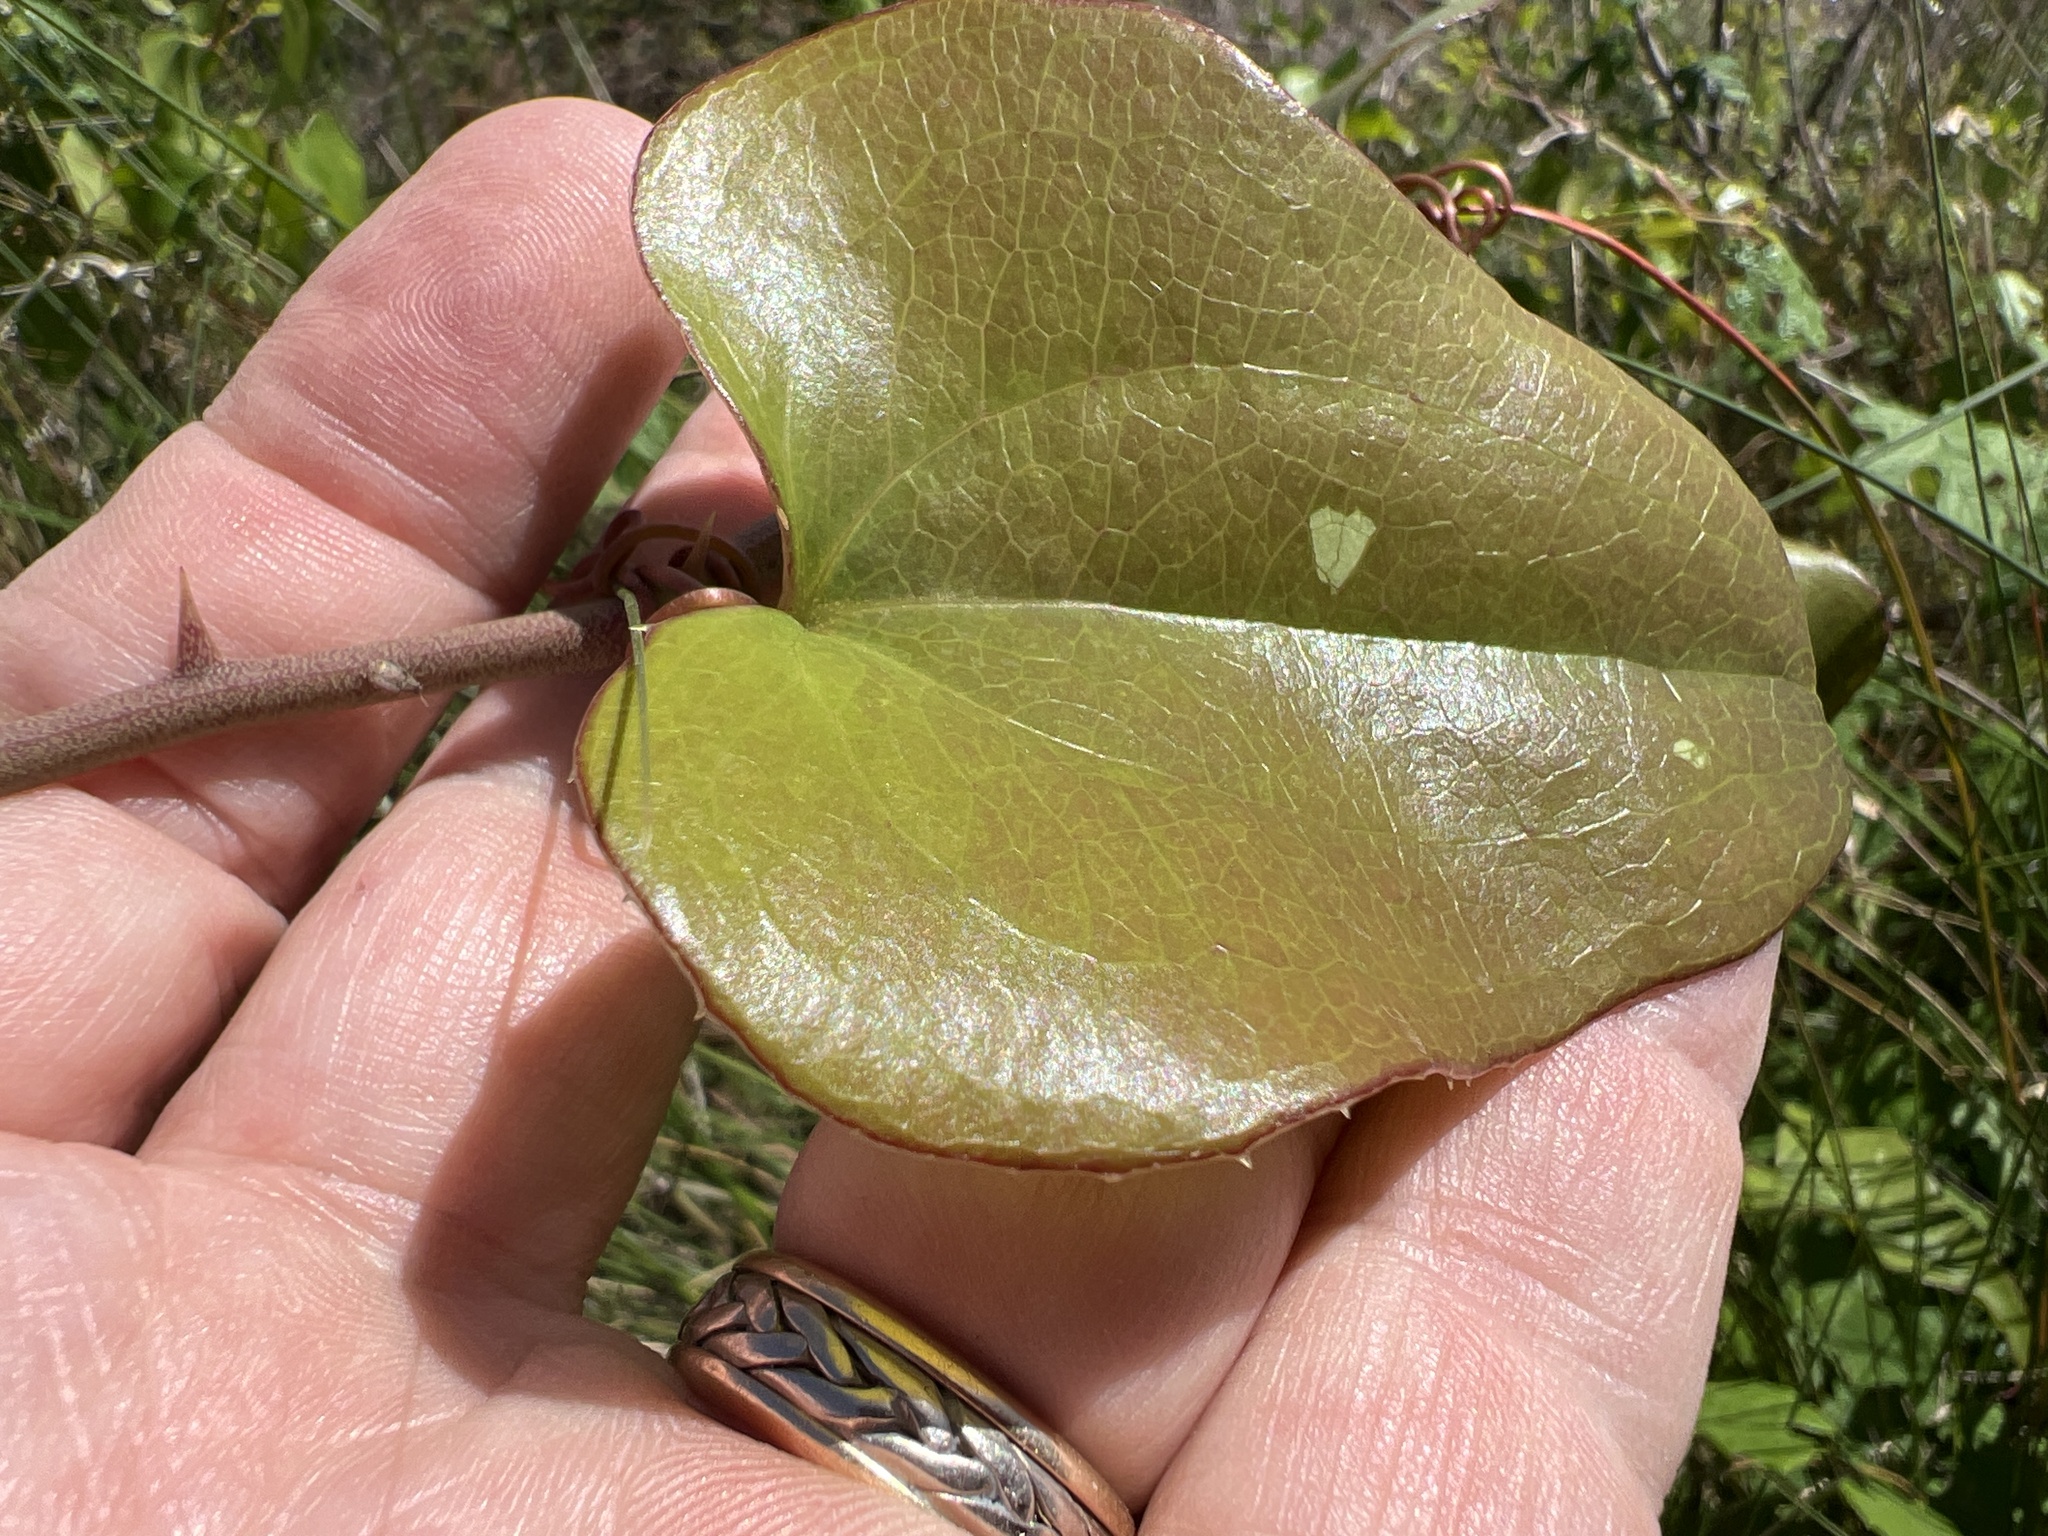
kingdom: Plantae
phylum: Tracheophyta
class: Liliopsida
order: Liliales
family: Smilacaceae
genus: Smilax
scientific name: Smilax bona-nox
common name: Catbrier
